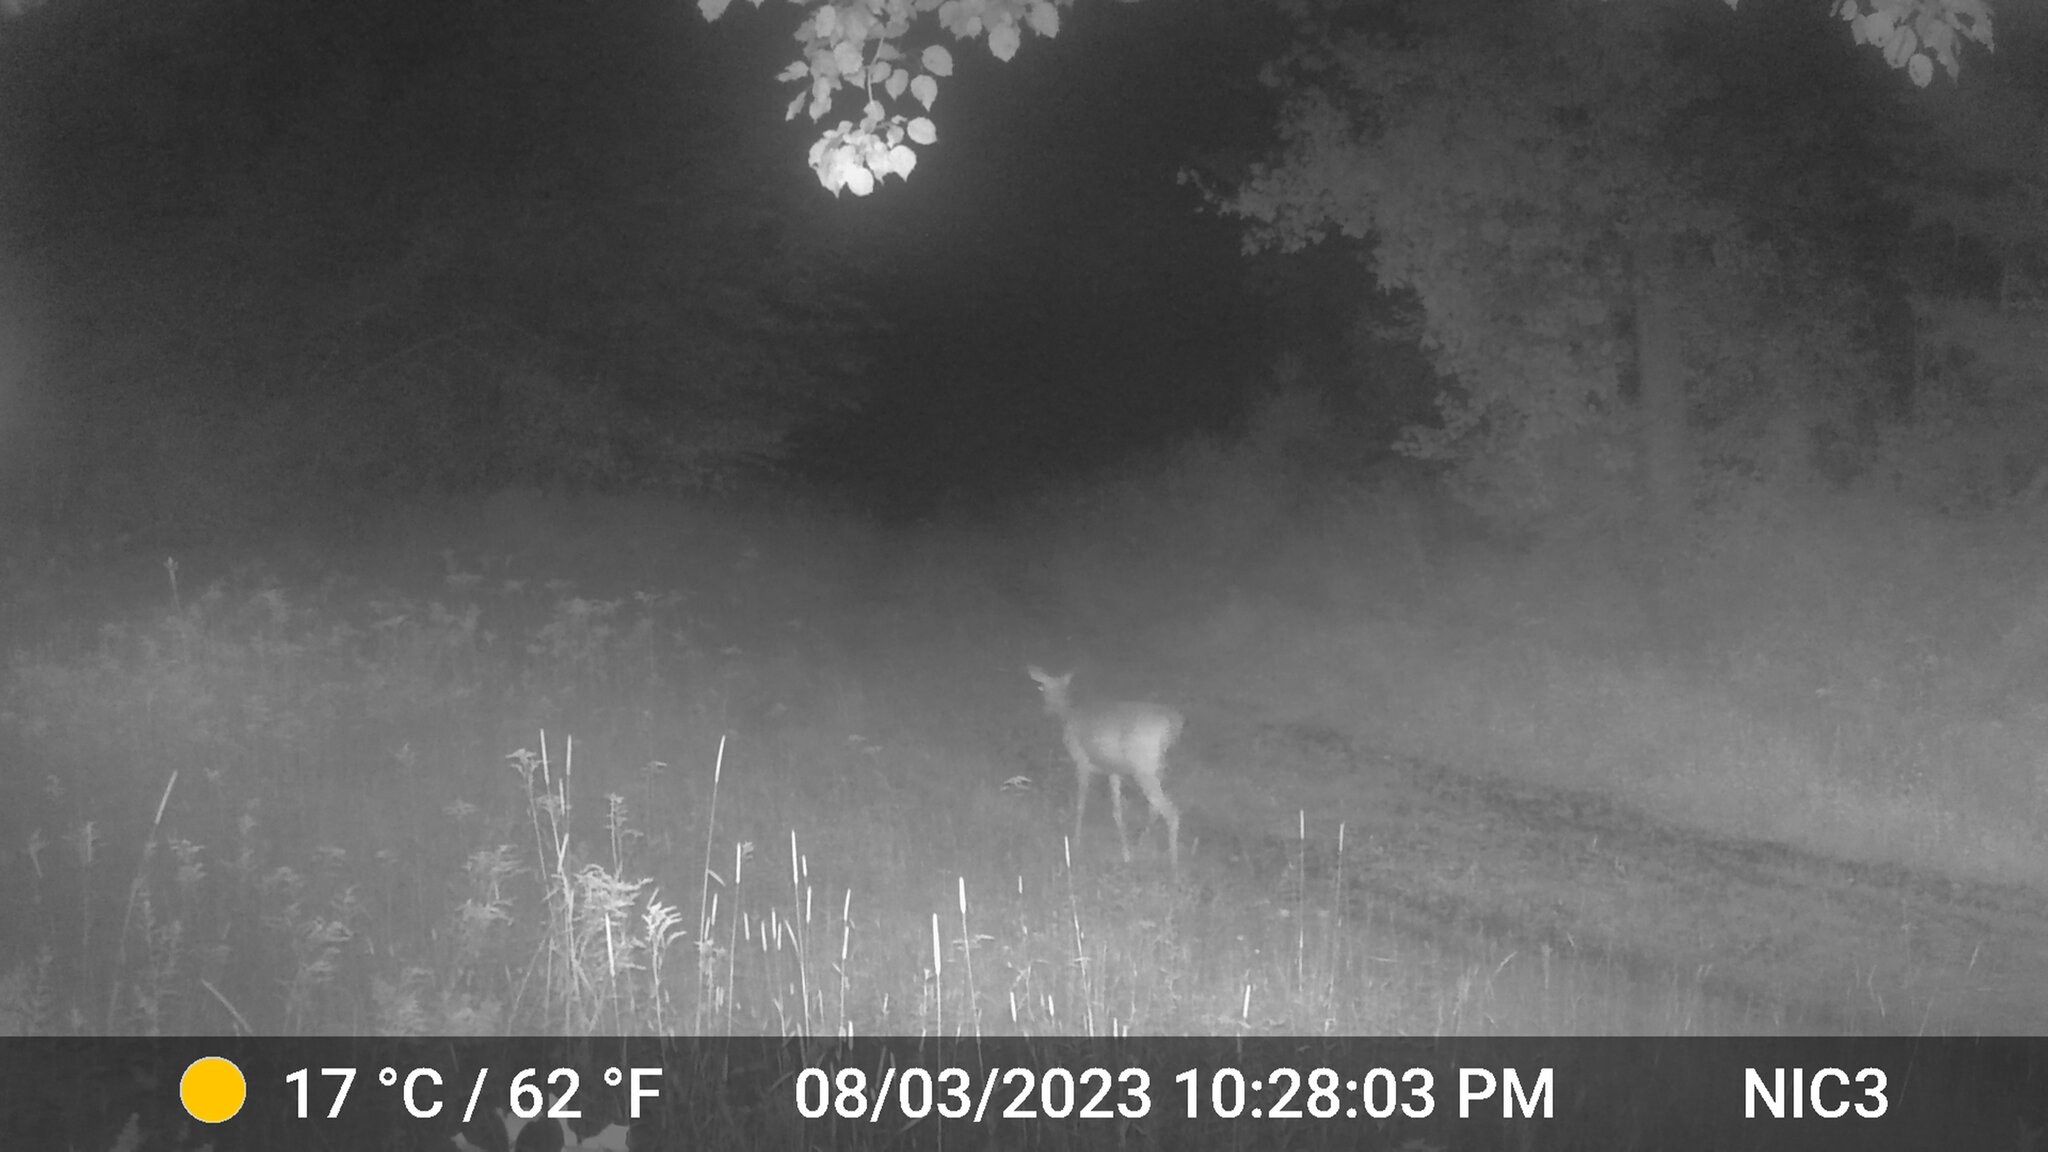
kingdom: Animalia
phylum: Chordata
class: Mammalia
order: Artiodactyla
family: Cervidae
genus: Odocoileus
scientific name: Odocoileus virginianus
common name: White-tailed deer
